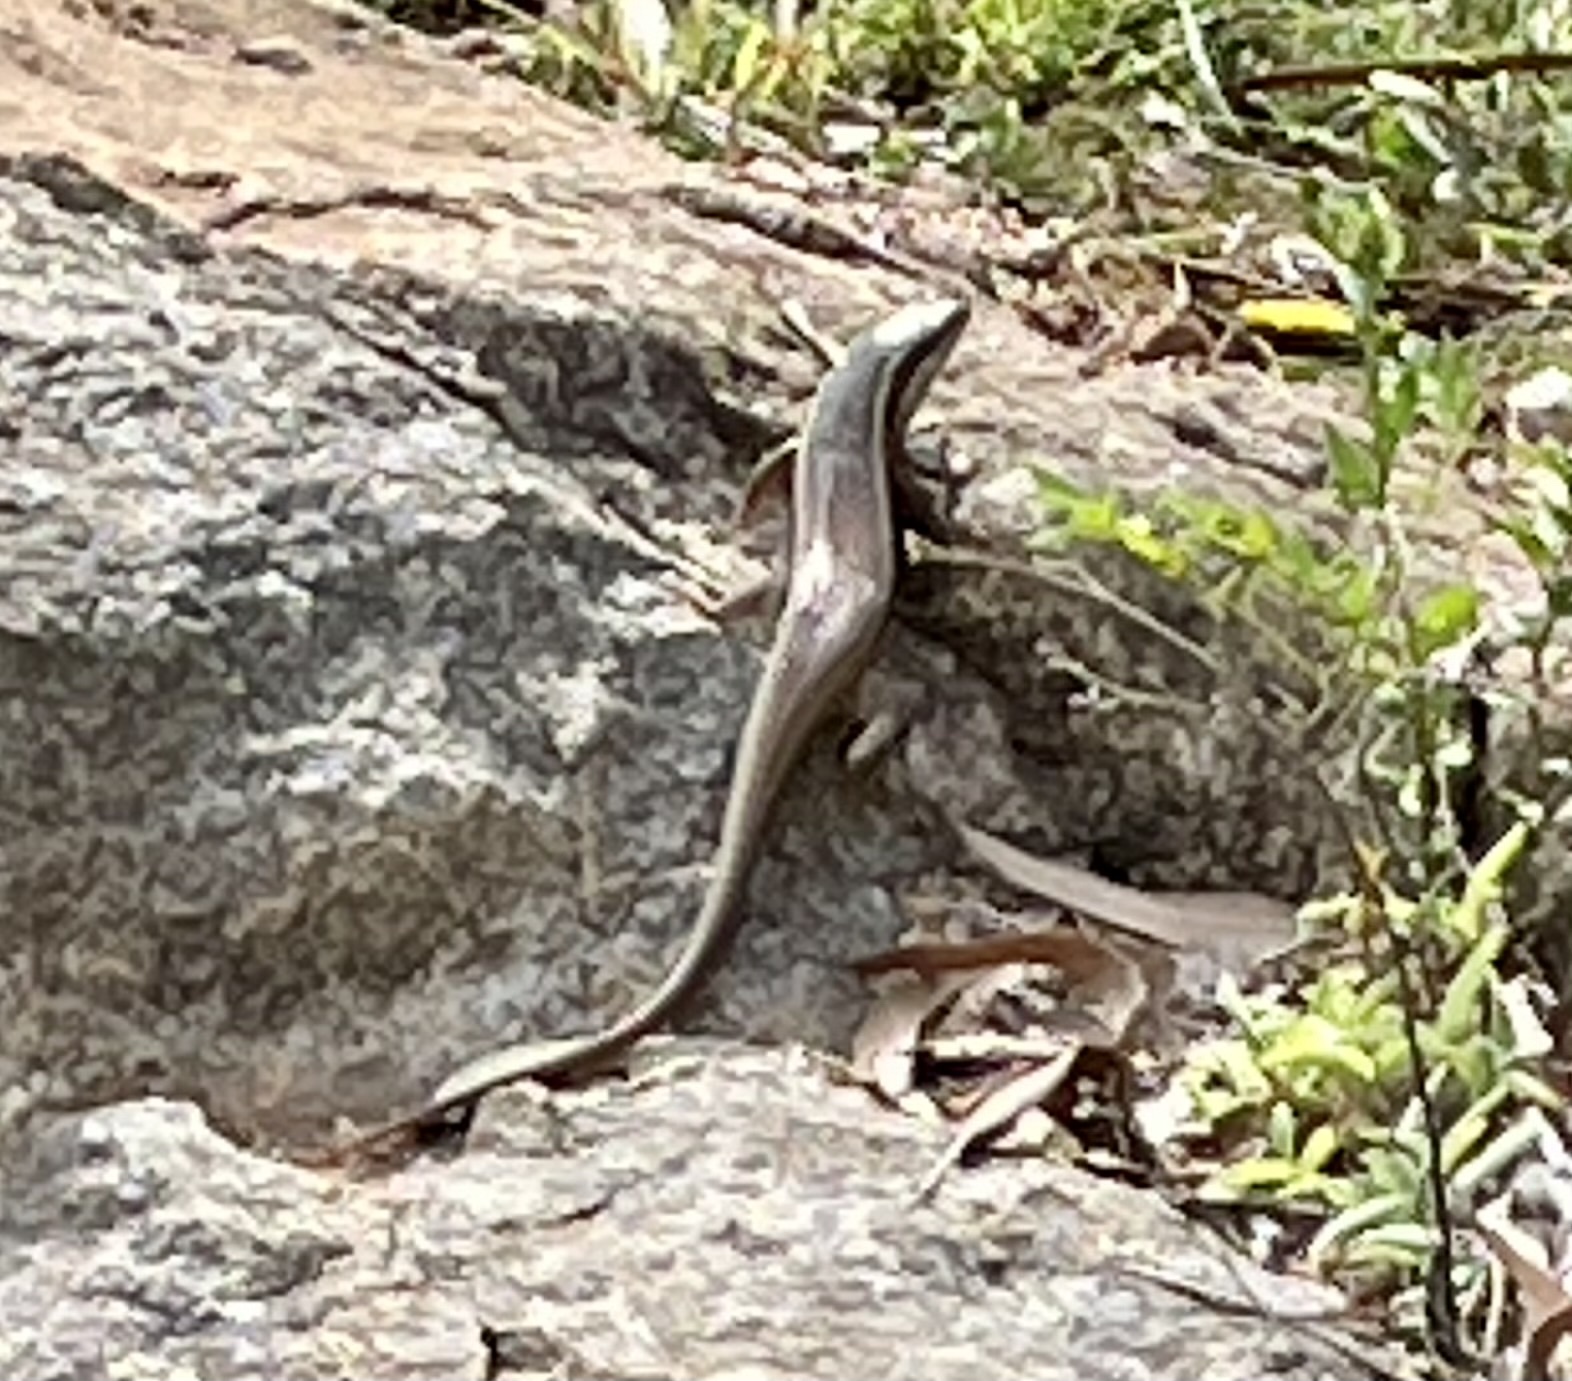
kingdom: Animalia
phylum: Chordata
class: Squamata
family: Scincidae
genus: Eutropis
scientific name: Eutropis carinata
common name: Keeled indian mabuya
